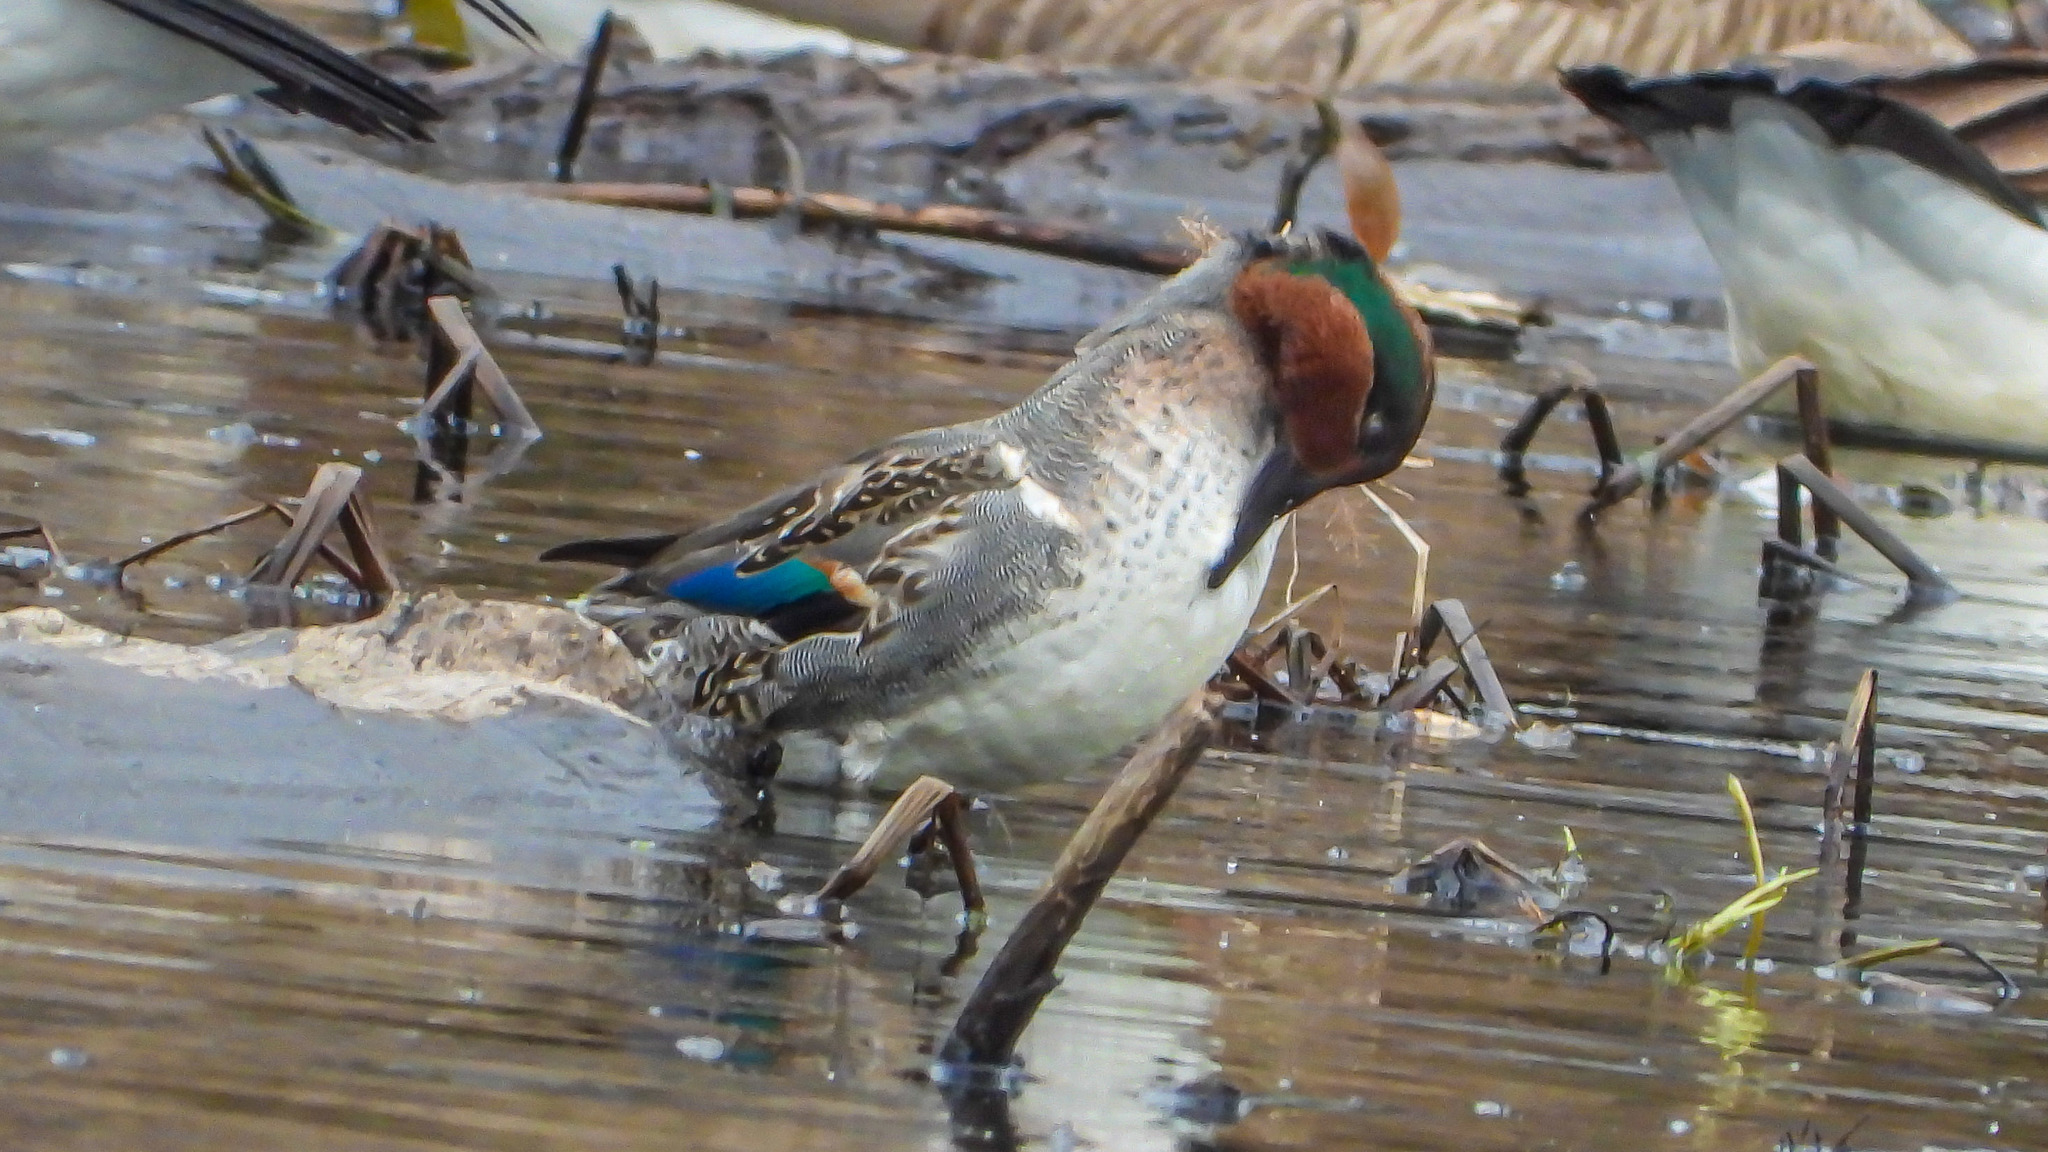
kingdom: Animalia
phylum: Chordata
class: Aves
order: Anseriformes
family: Anatidae
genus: Anas
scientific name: Anas crecca
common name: Eurasian teal
